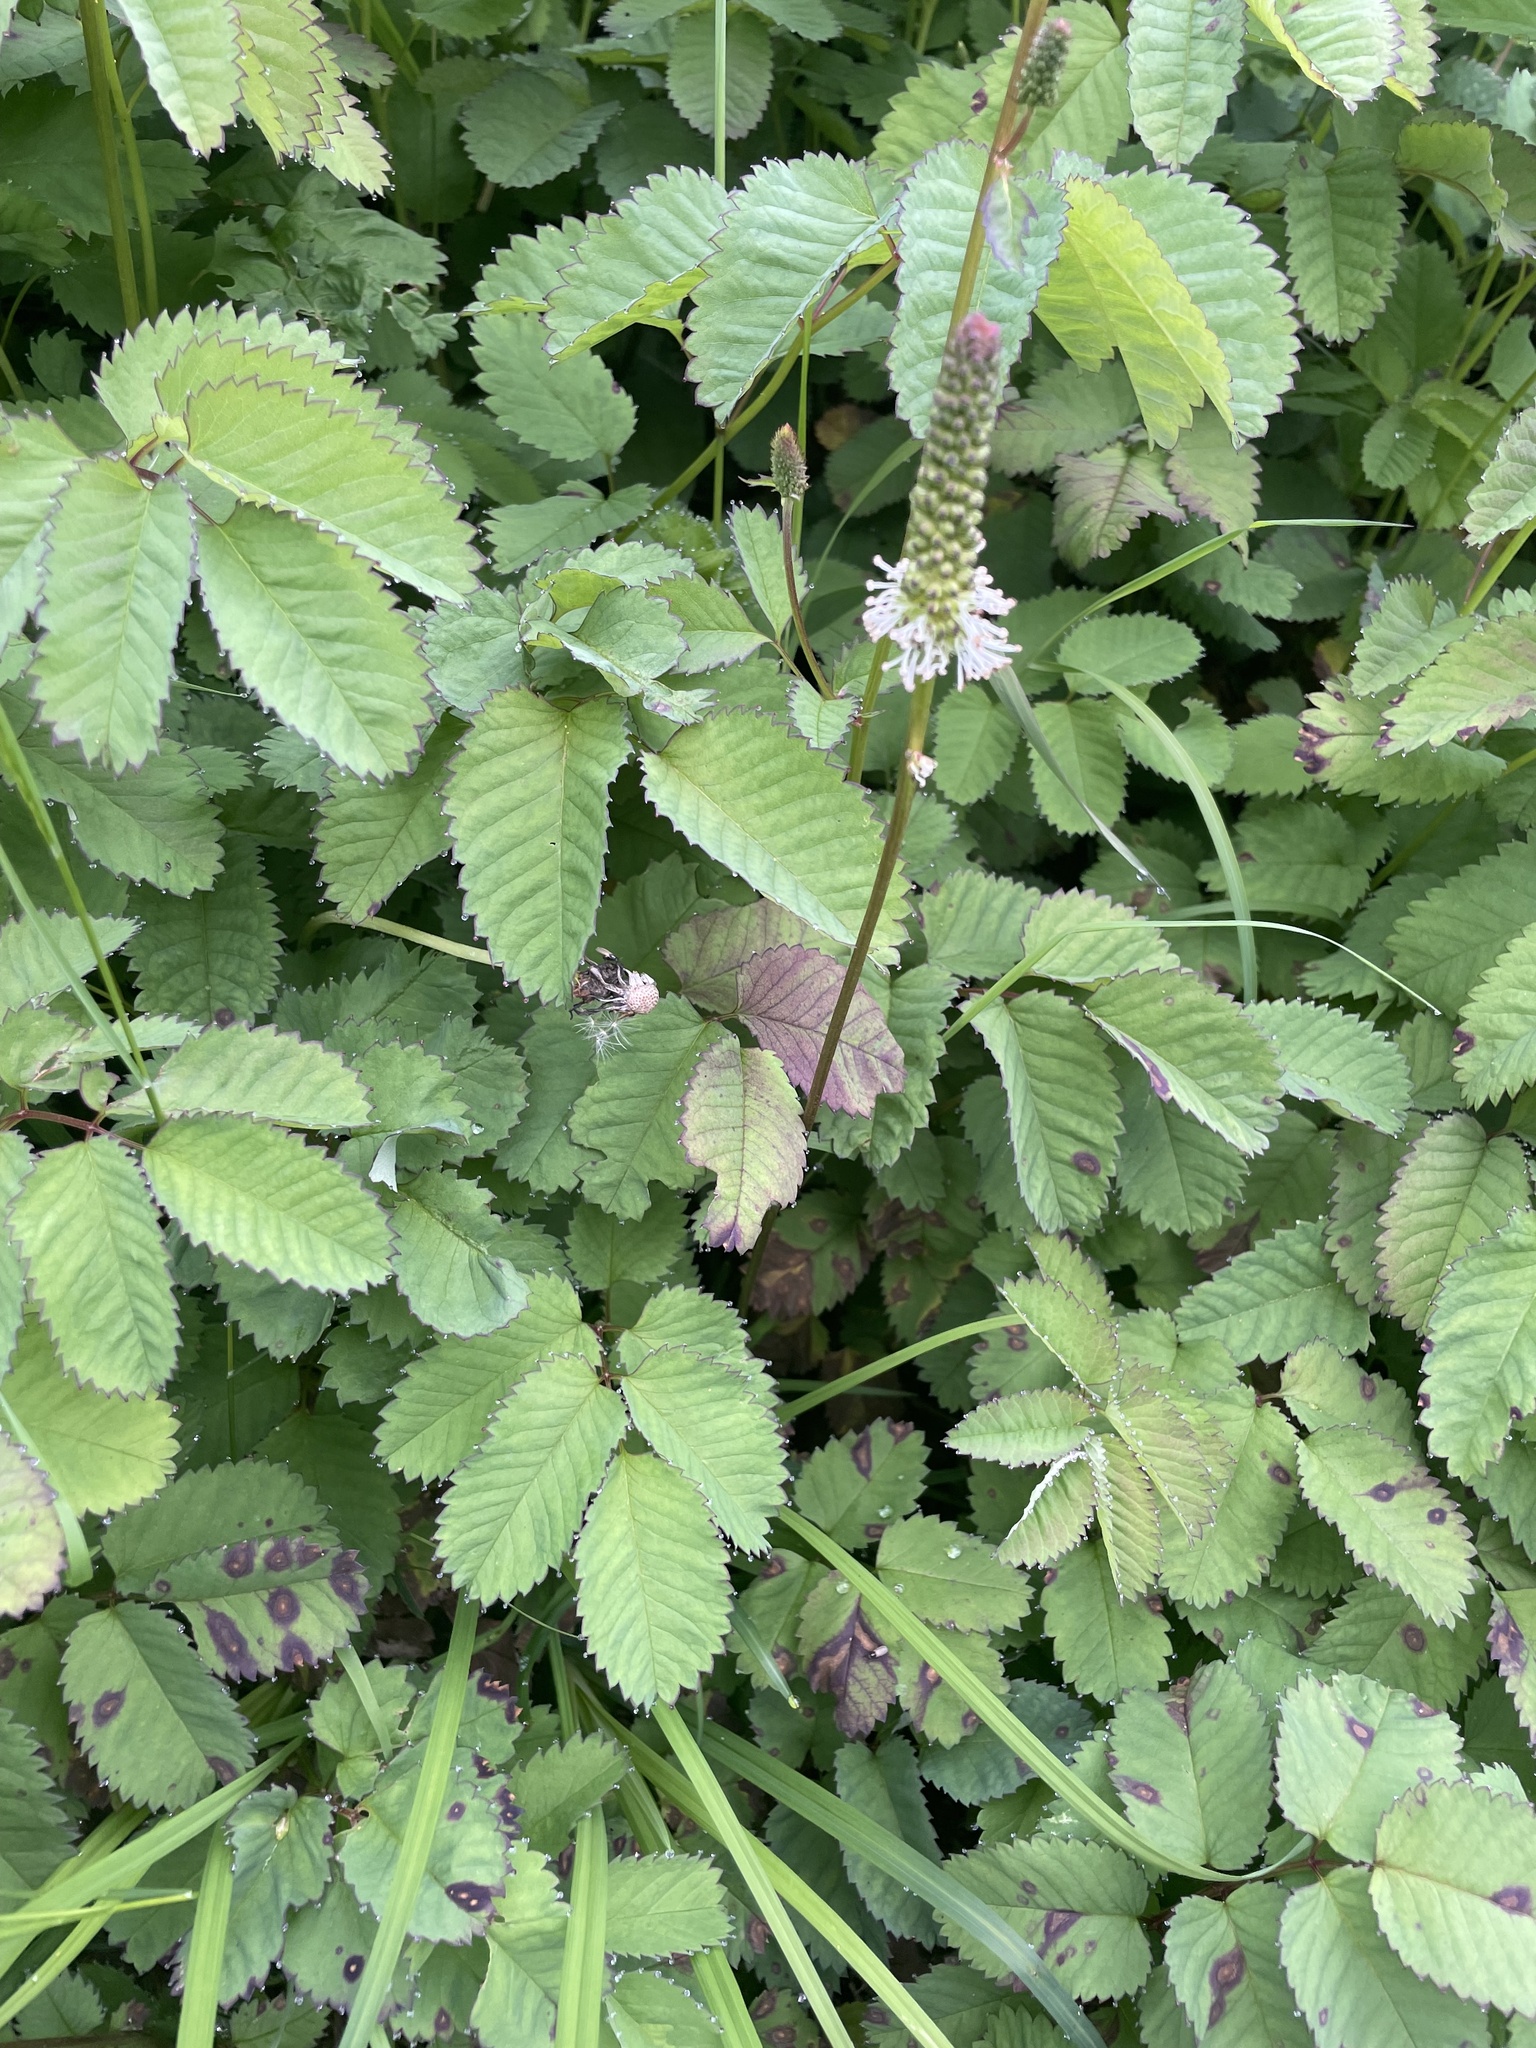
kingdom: Plantae
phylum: Tracheophyta
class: Magnoliopsida
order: Rosales
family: Rosaceae
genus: Sanguisorba
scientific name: Sanguisorba stipulata
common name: Sitka burnet
